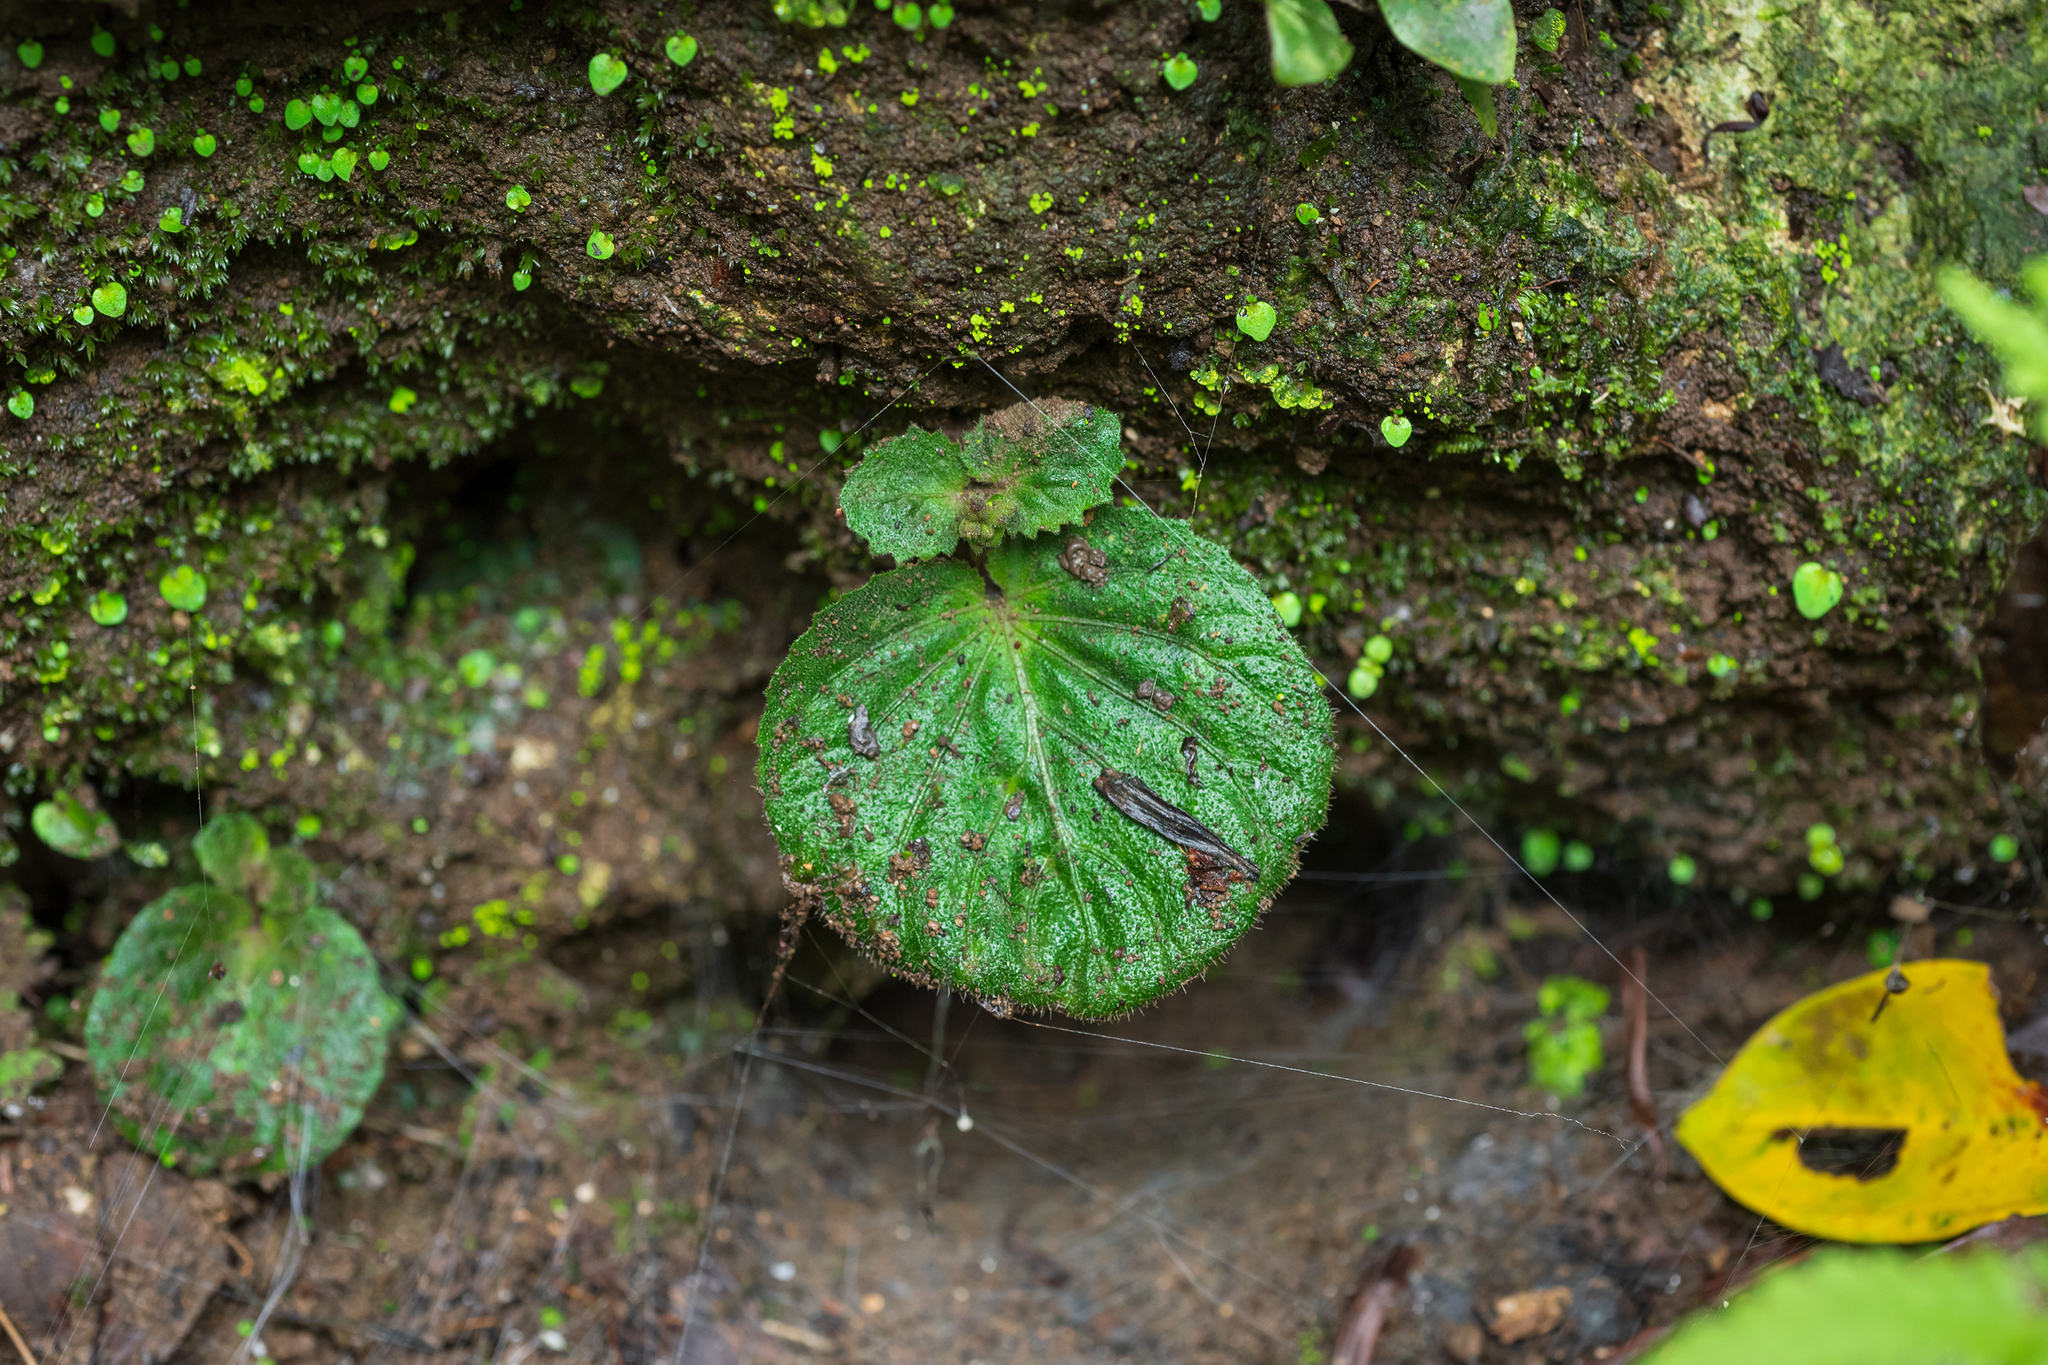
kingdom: Plantae
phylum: Tracheophyta
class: Magnoliopsida
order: Lamiales
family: Gesneriaceae
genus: Epithema
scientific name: Epithema ceylanicum
